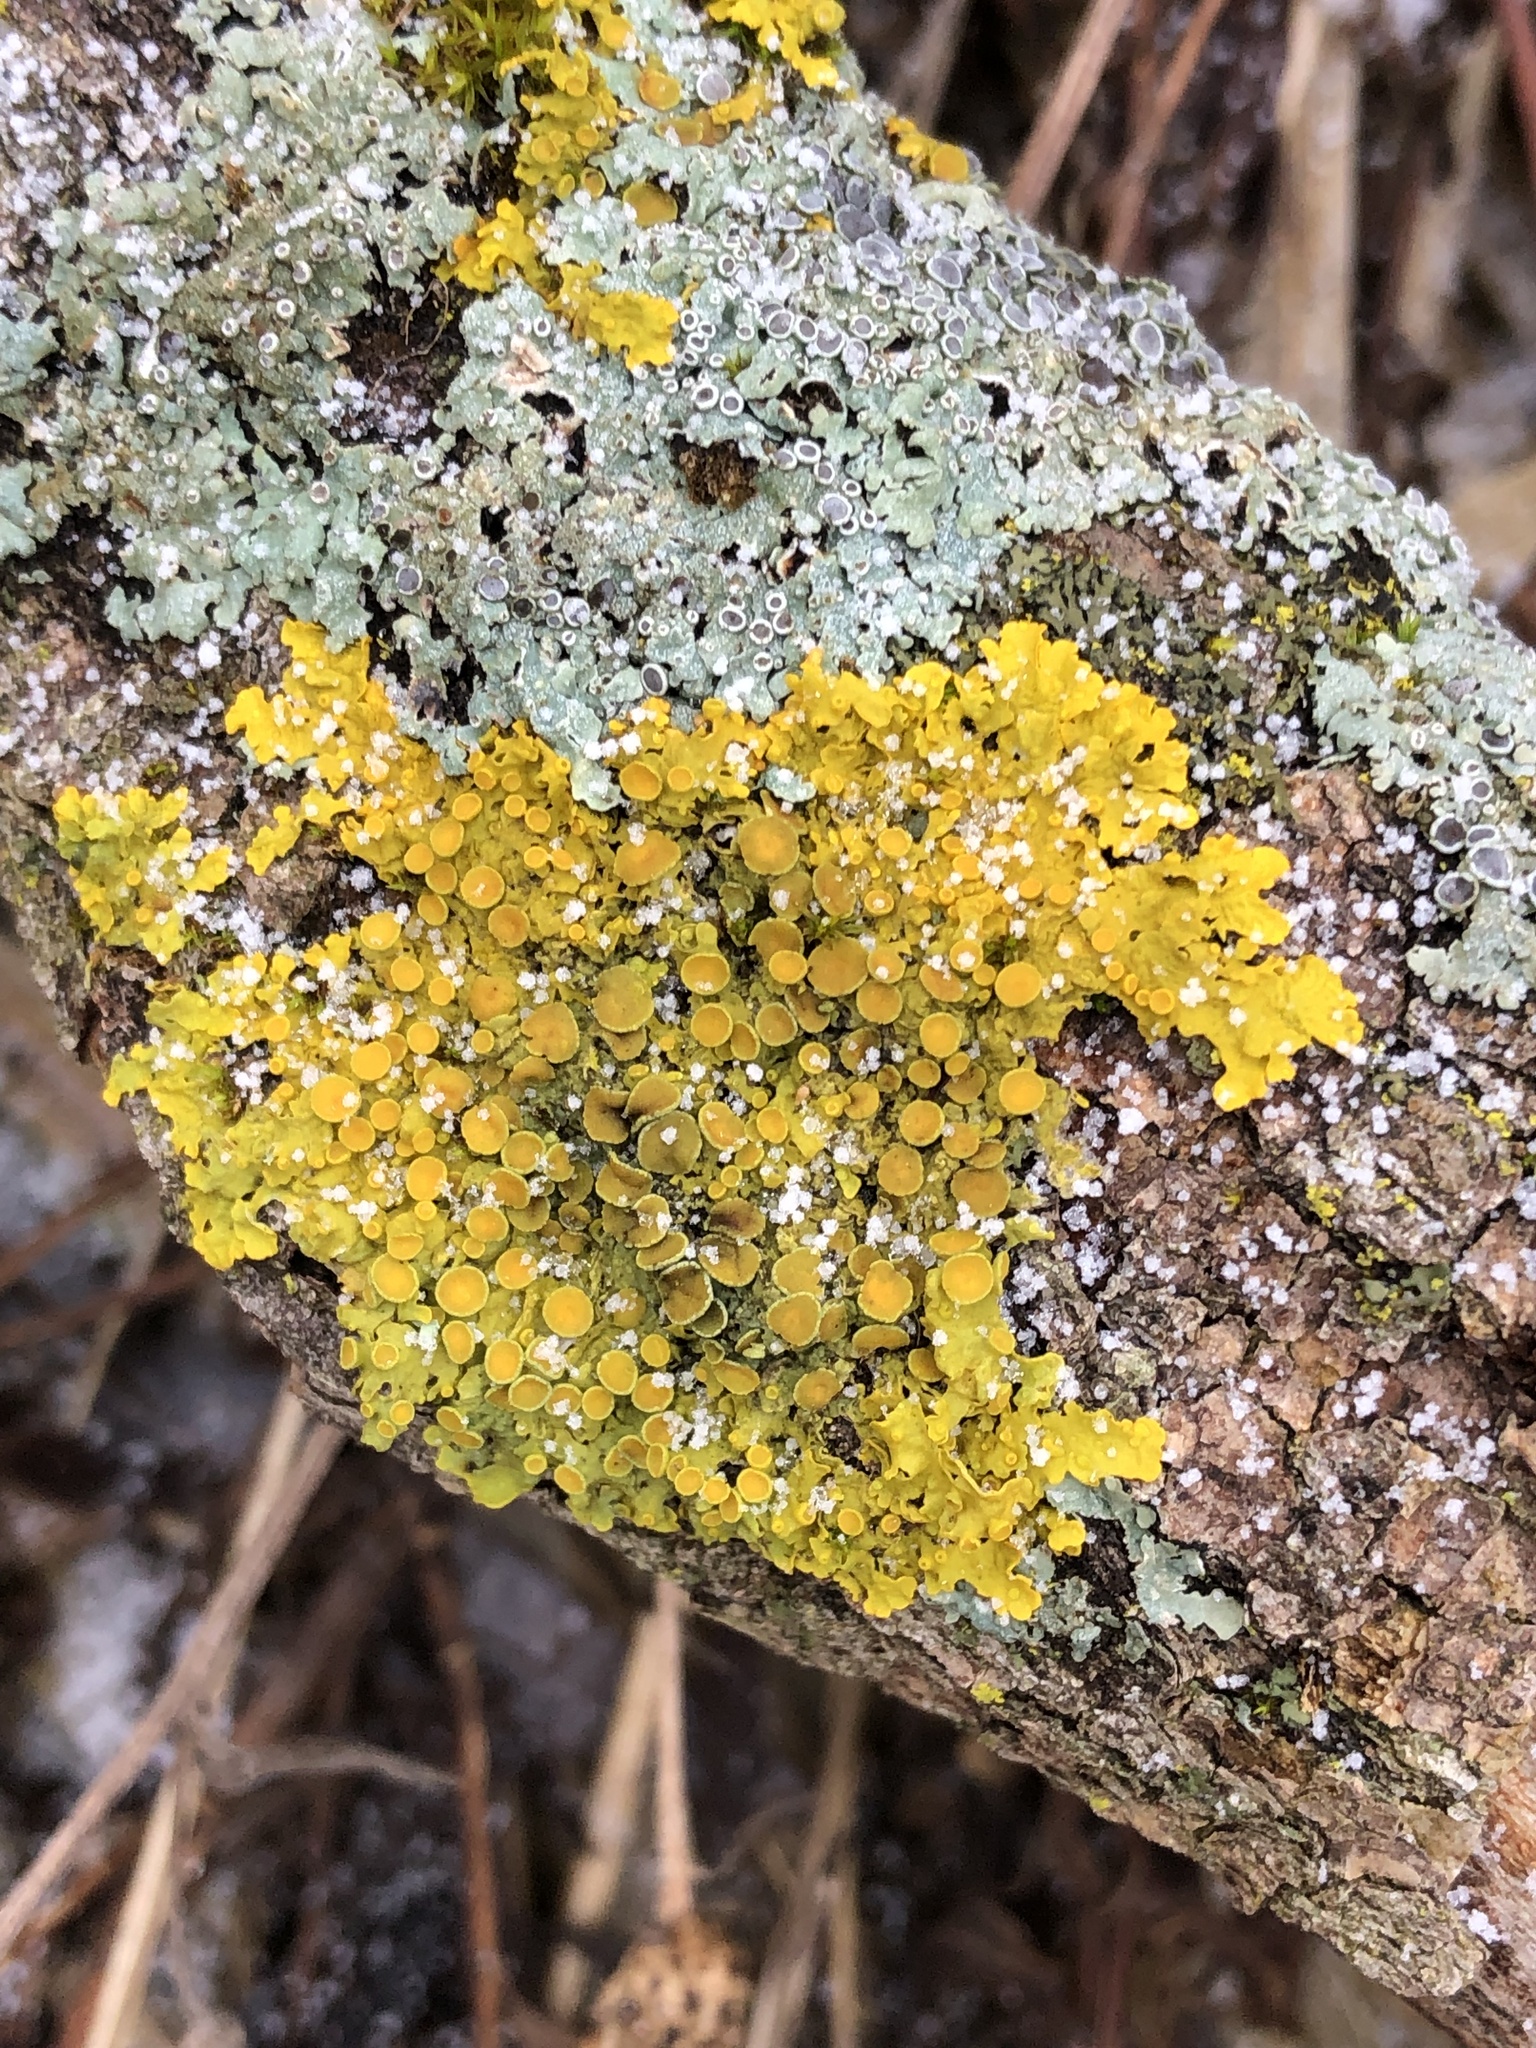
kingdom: Fungi
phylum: Ascomycota
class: Lecanoromycetes
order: Teloschistales
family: Teloschistaceae
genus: Xanthoria
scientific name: Xanthoria parietina
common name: Common orange lichen
